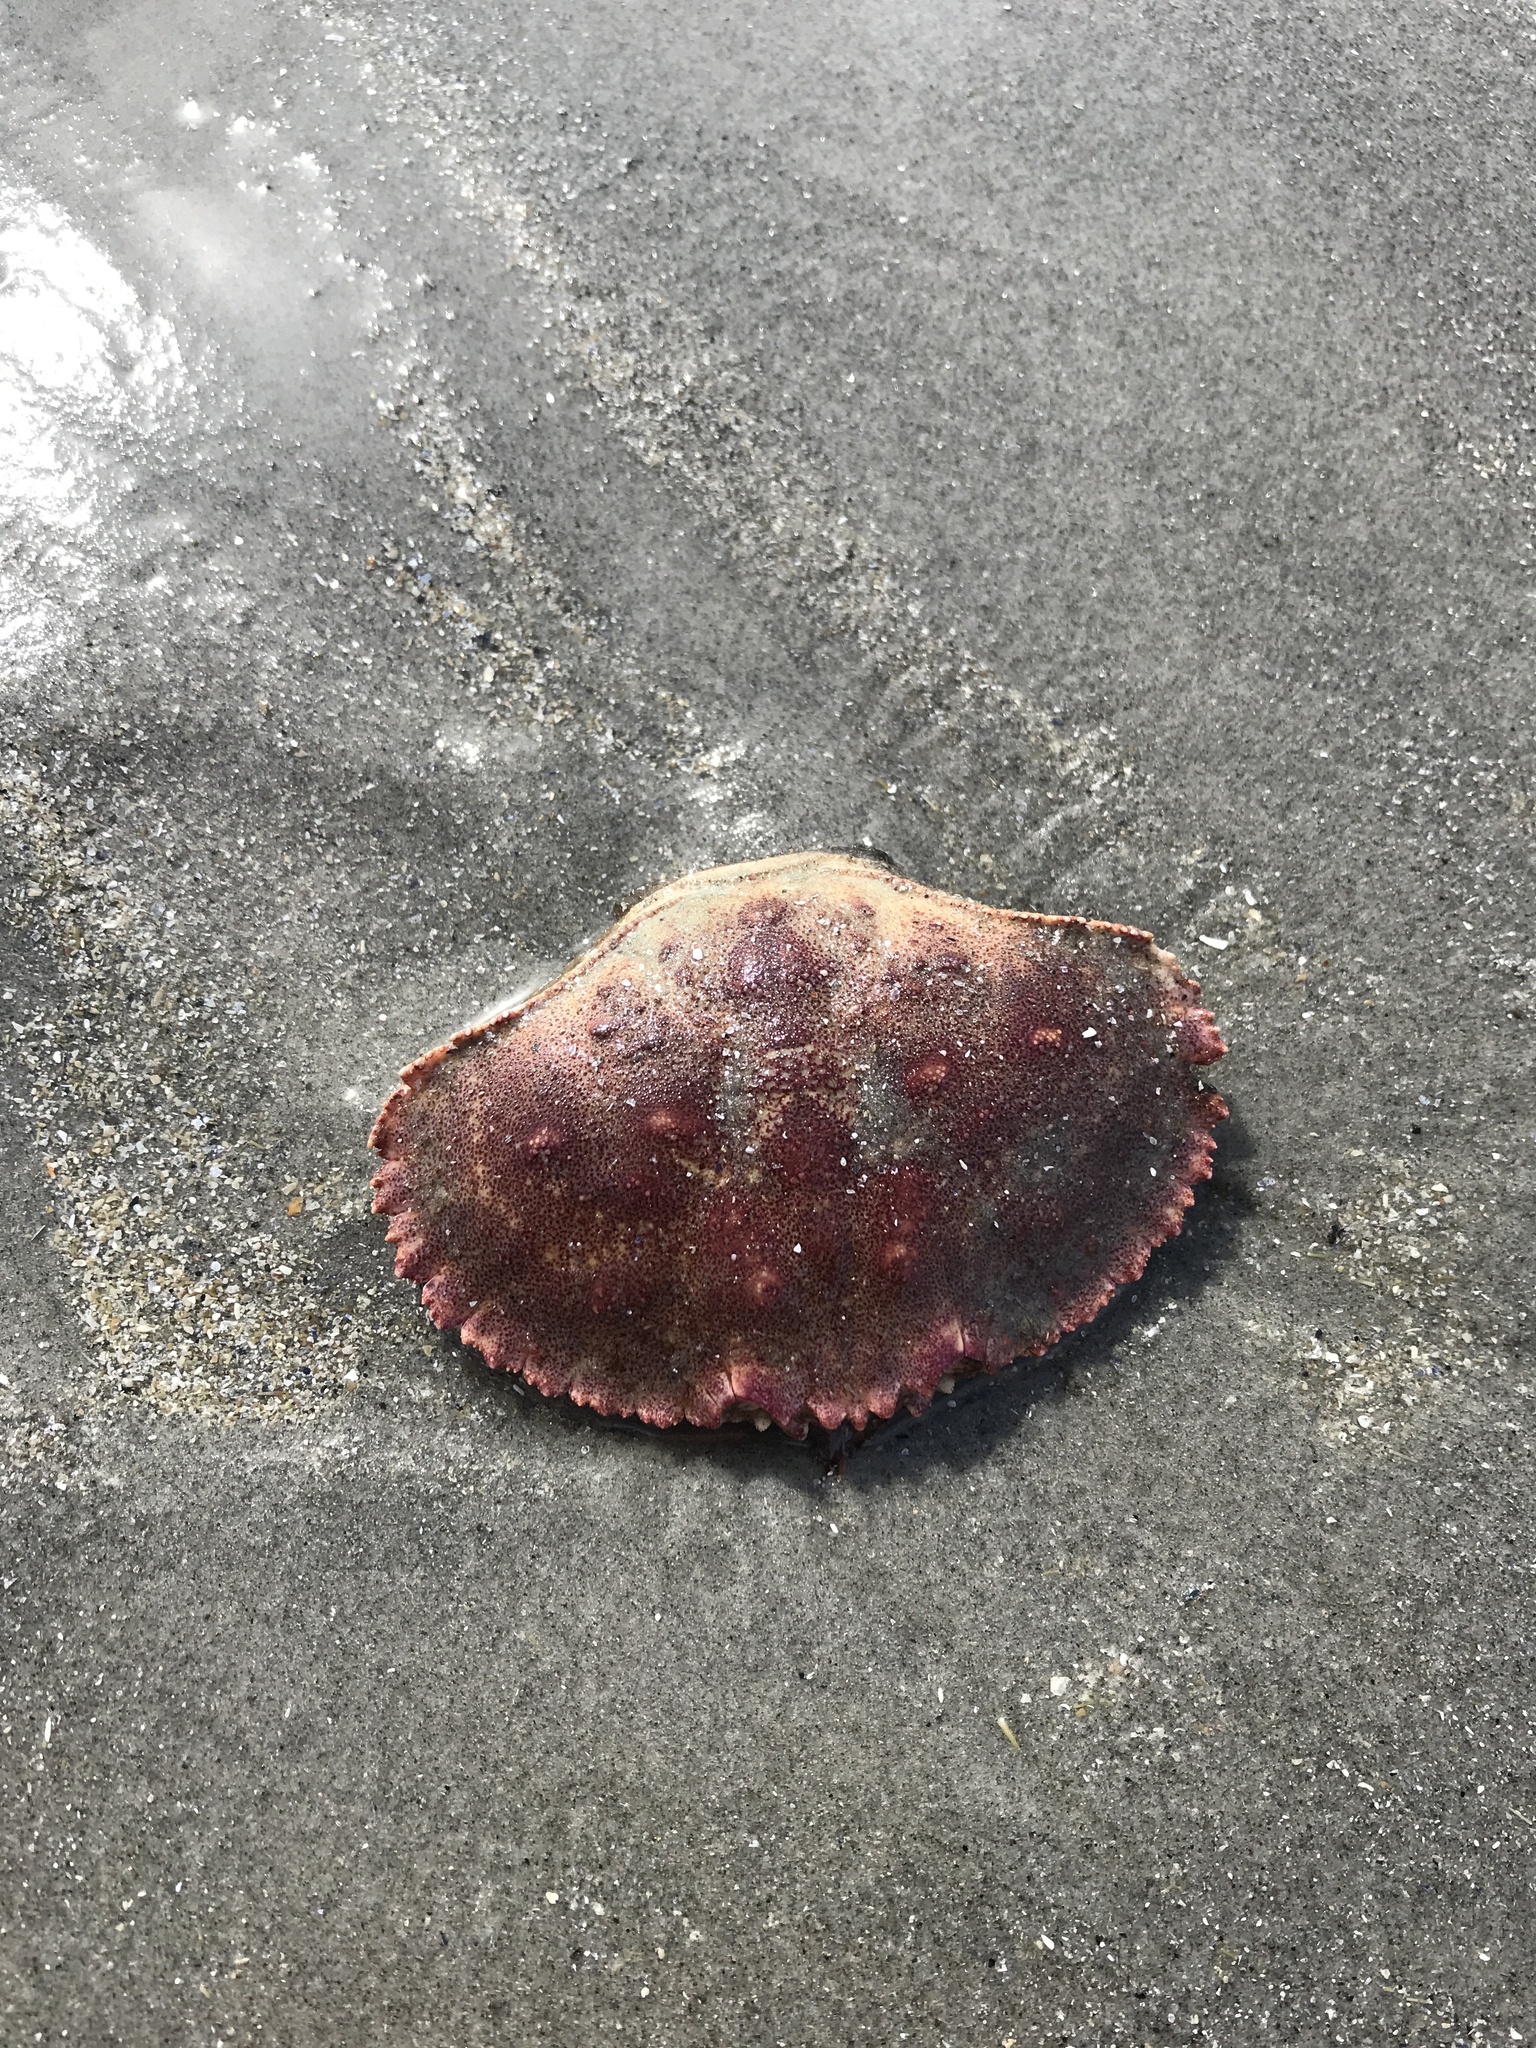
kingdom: Animalia
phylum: Arthropoda
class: Malacostraca
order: Decapoda
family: Cancridae
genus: Cancer
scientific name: Cancer borealis
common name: Jonah crab
